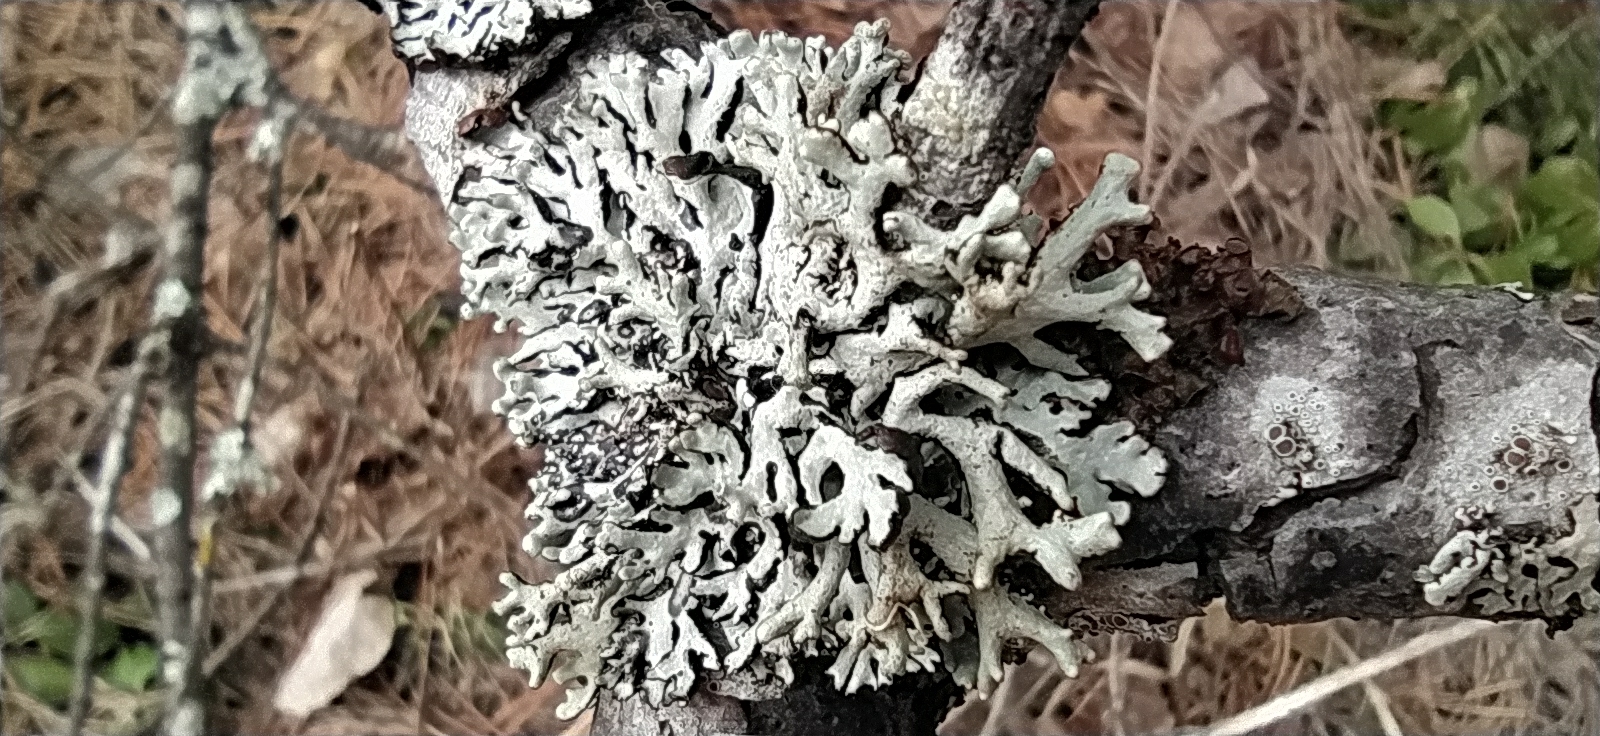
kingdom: Fungi
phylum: Ascomycota
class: Lecanoromycetes
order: Lecanorales
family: Parmeliaceae
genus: Hypogymnia
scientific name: Hypogymnia tubulosa
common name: Powder-headed tube lichen
